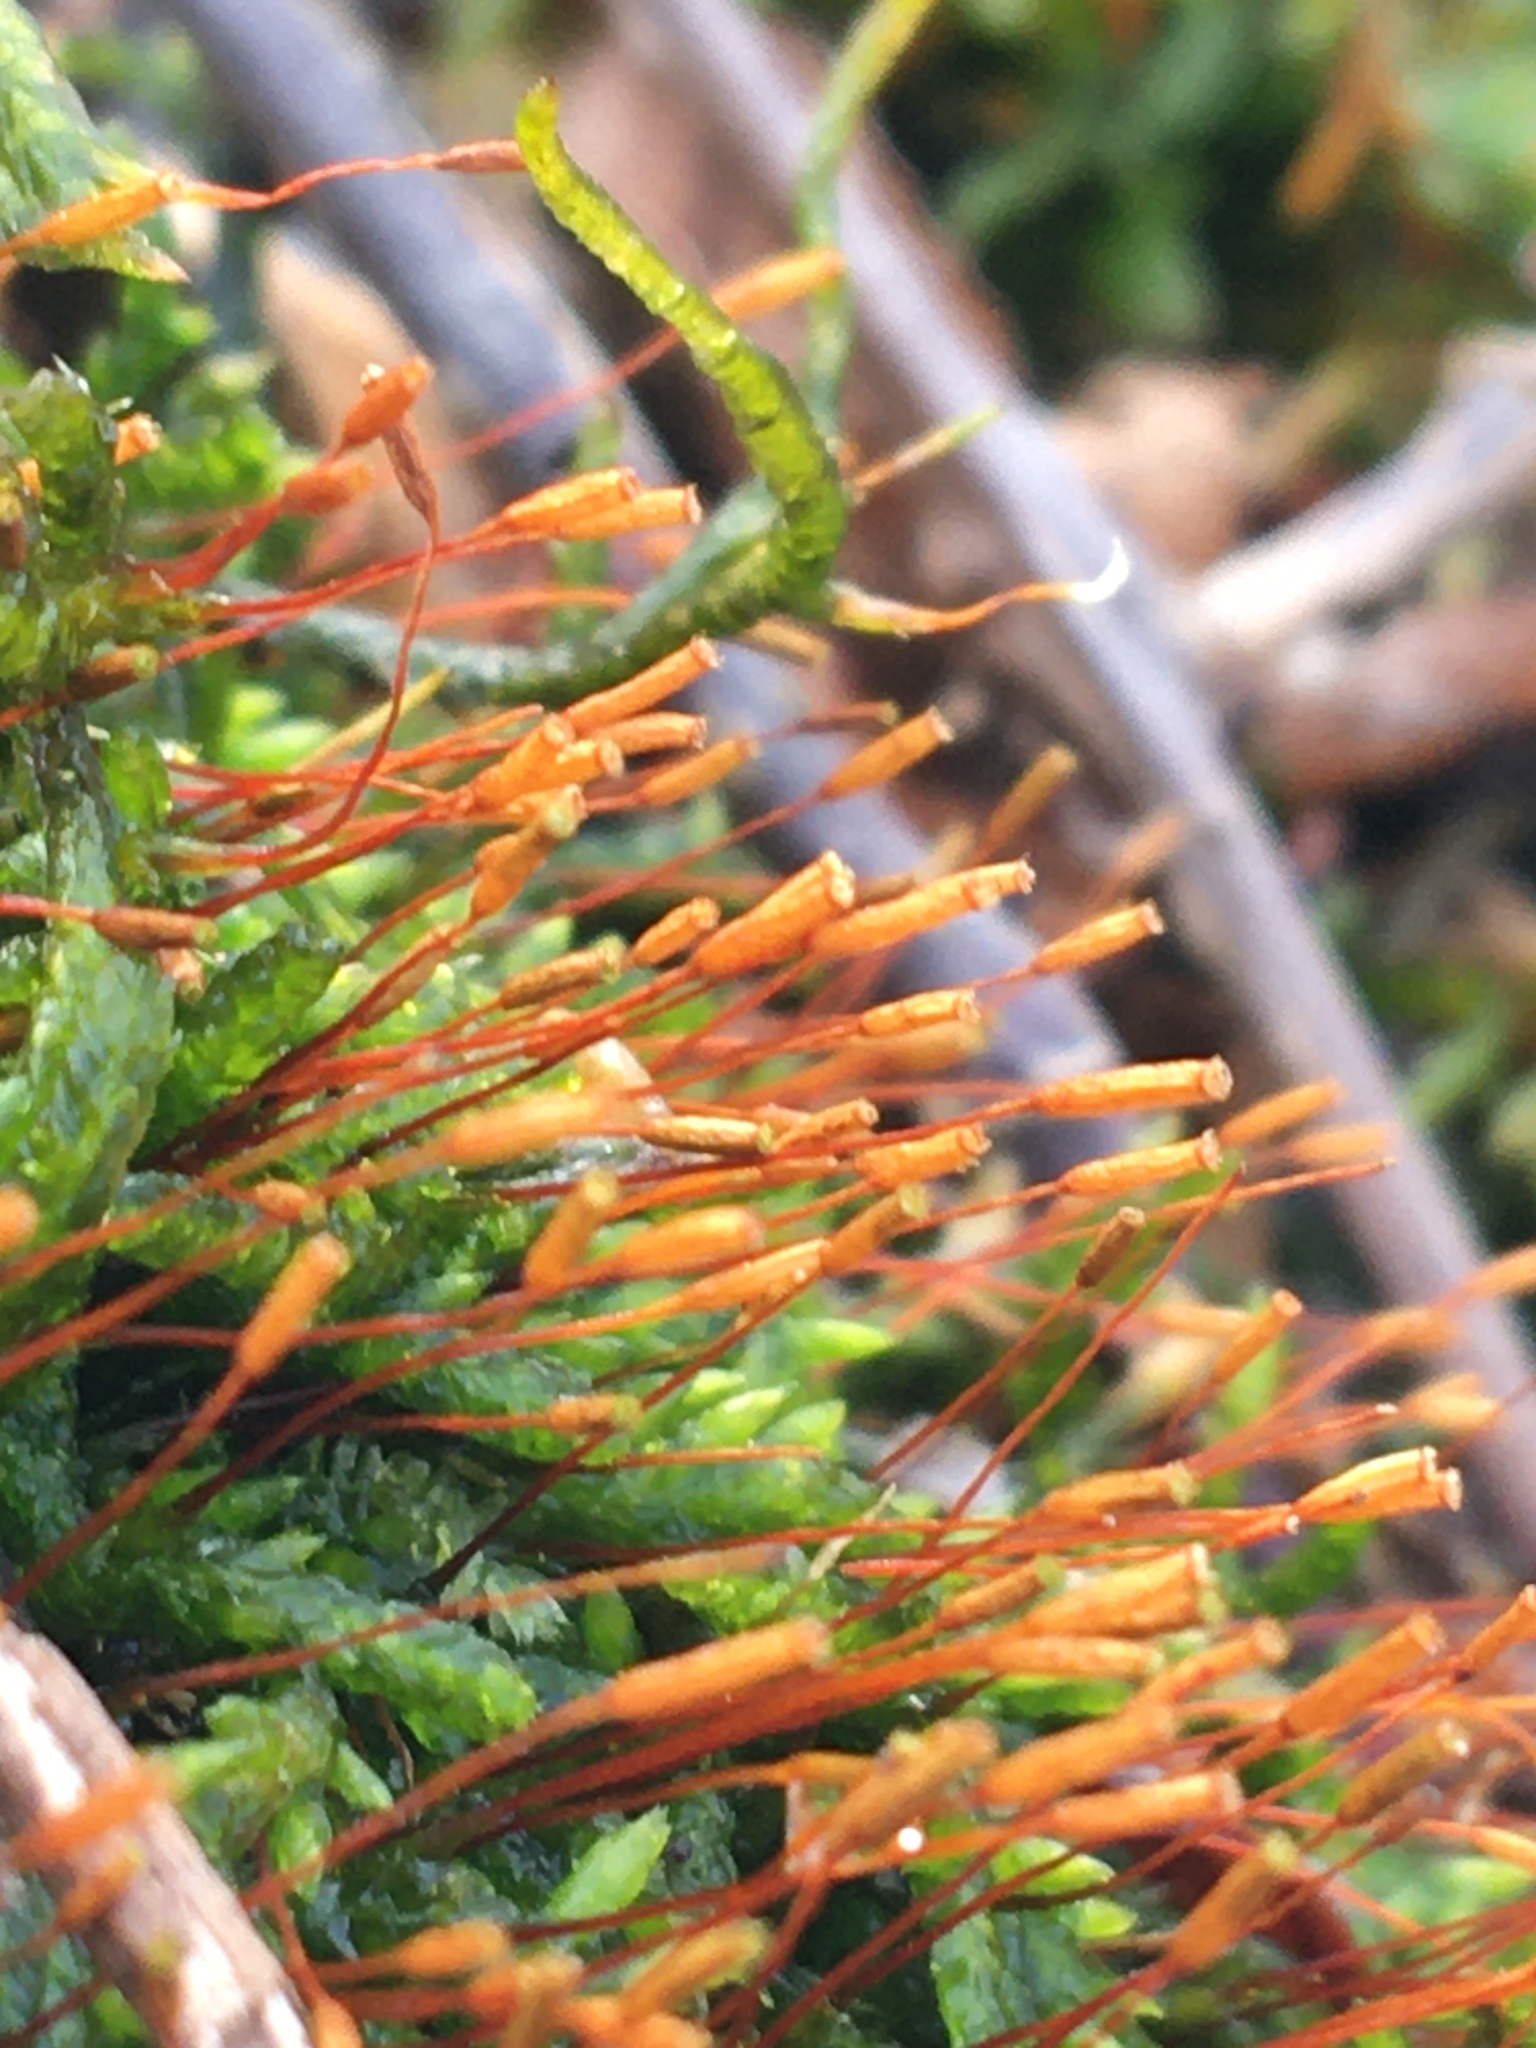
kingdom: Plantae
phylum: Bryophyta
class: Bryopsida
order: Hypnales
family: Entodontaceae
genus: Entodon
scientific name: Entodon seductrix
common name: Round-stemmed entodon moss
